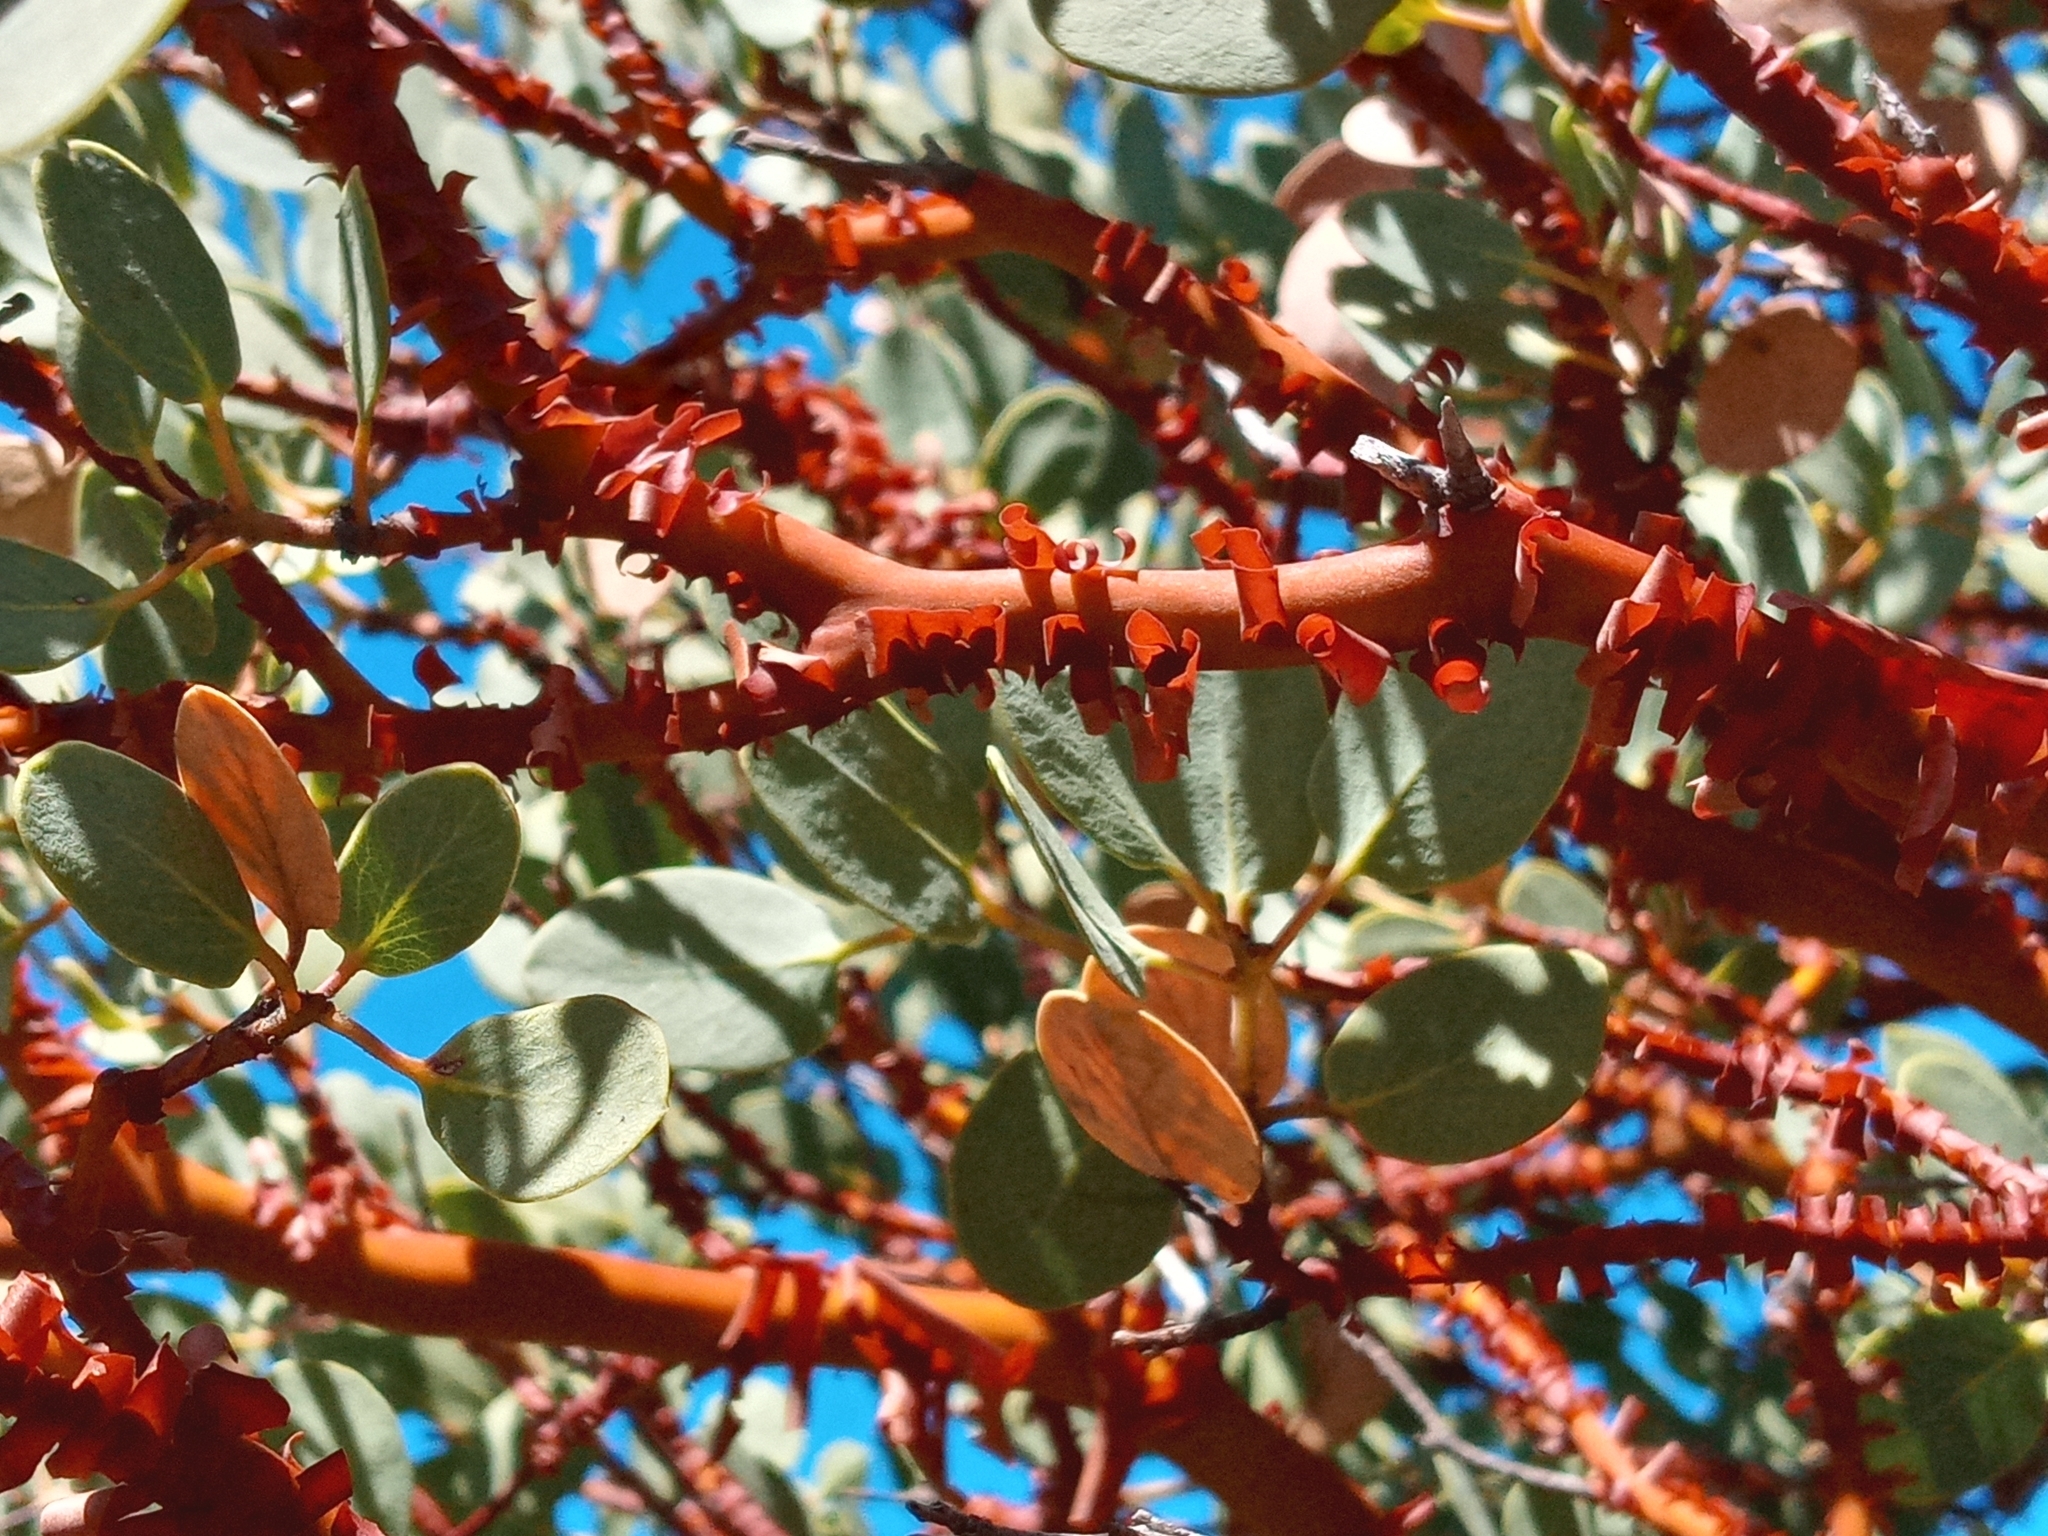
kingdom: Plantae
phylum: Tracheophyta
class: Magnoliopsida
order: Ericales
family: Ericaceae
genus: Arctostaphylos
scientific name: Arctostaphylos glauca
